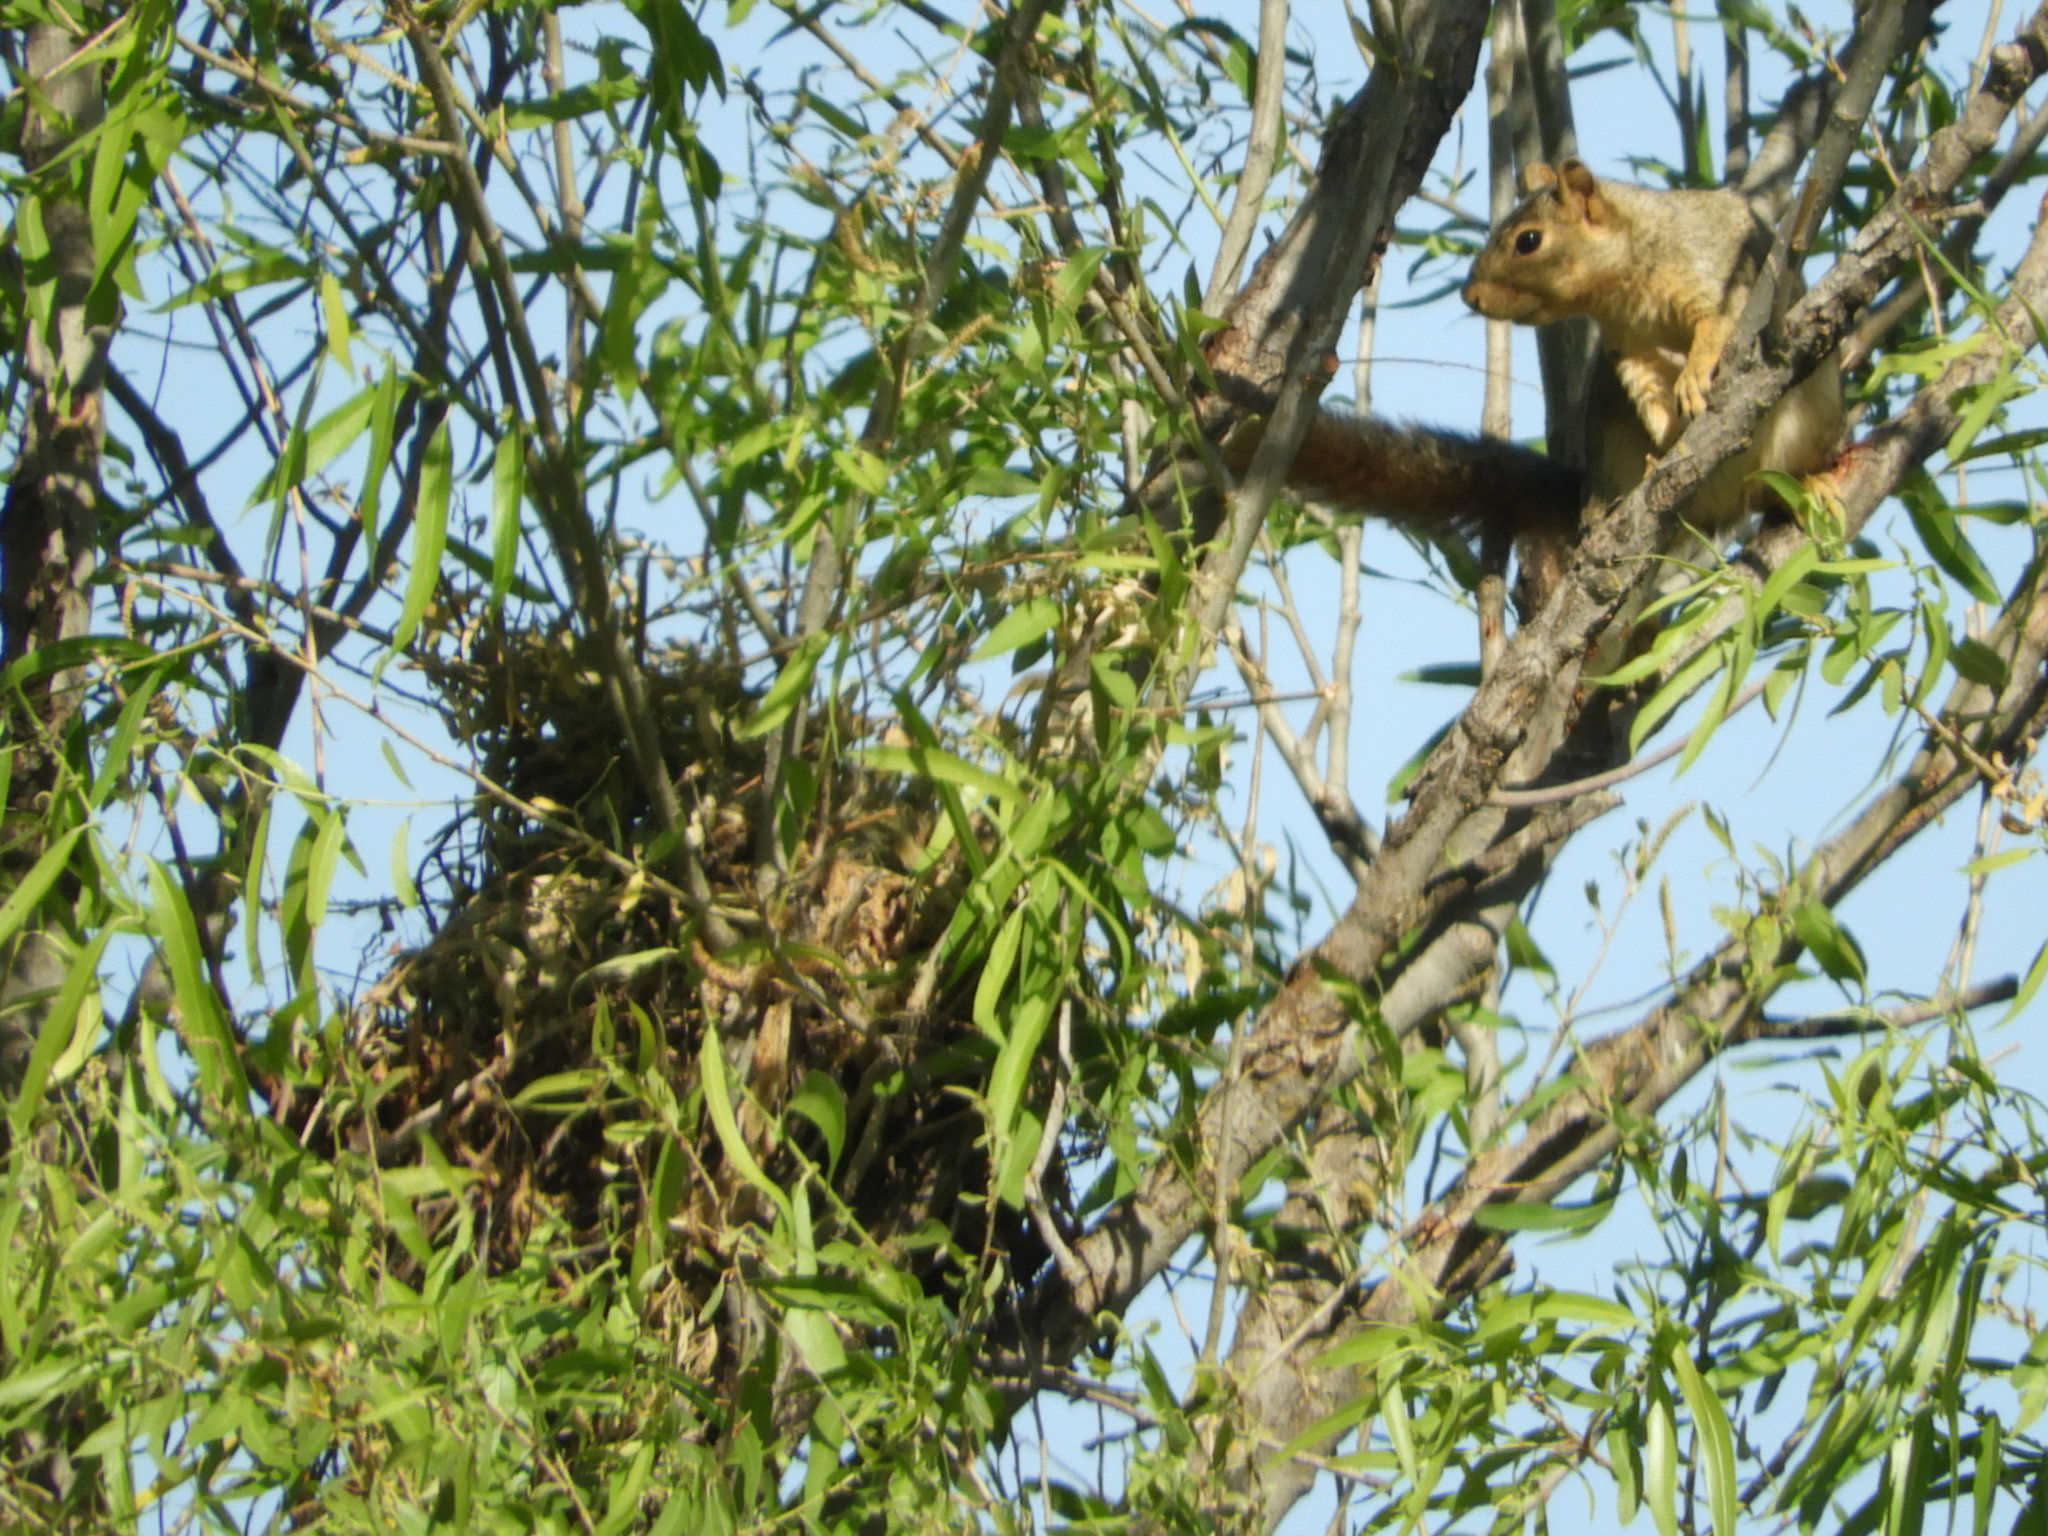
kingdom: Animalia
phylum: Chordata
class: Mammalia
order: Rodentia
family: Sciuridae
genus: Sciurus
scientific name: Sciurus niger
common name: Fox squirrel
